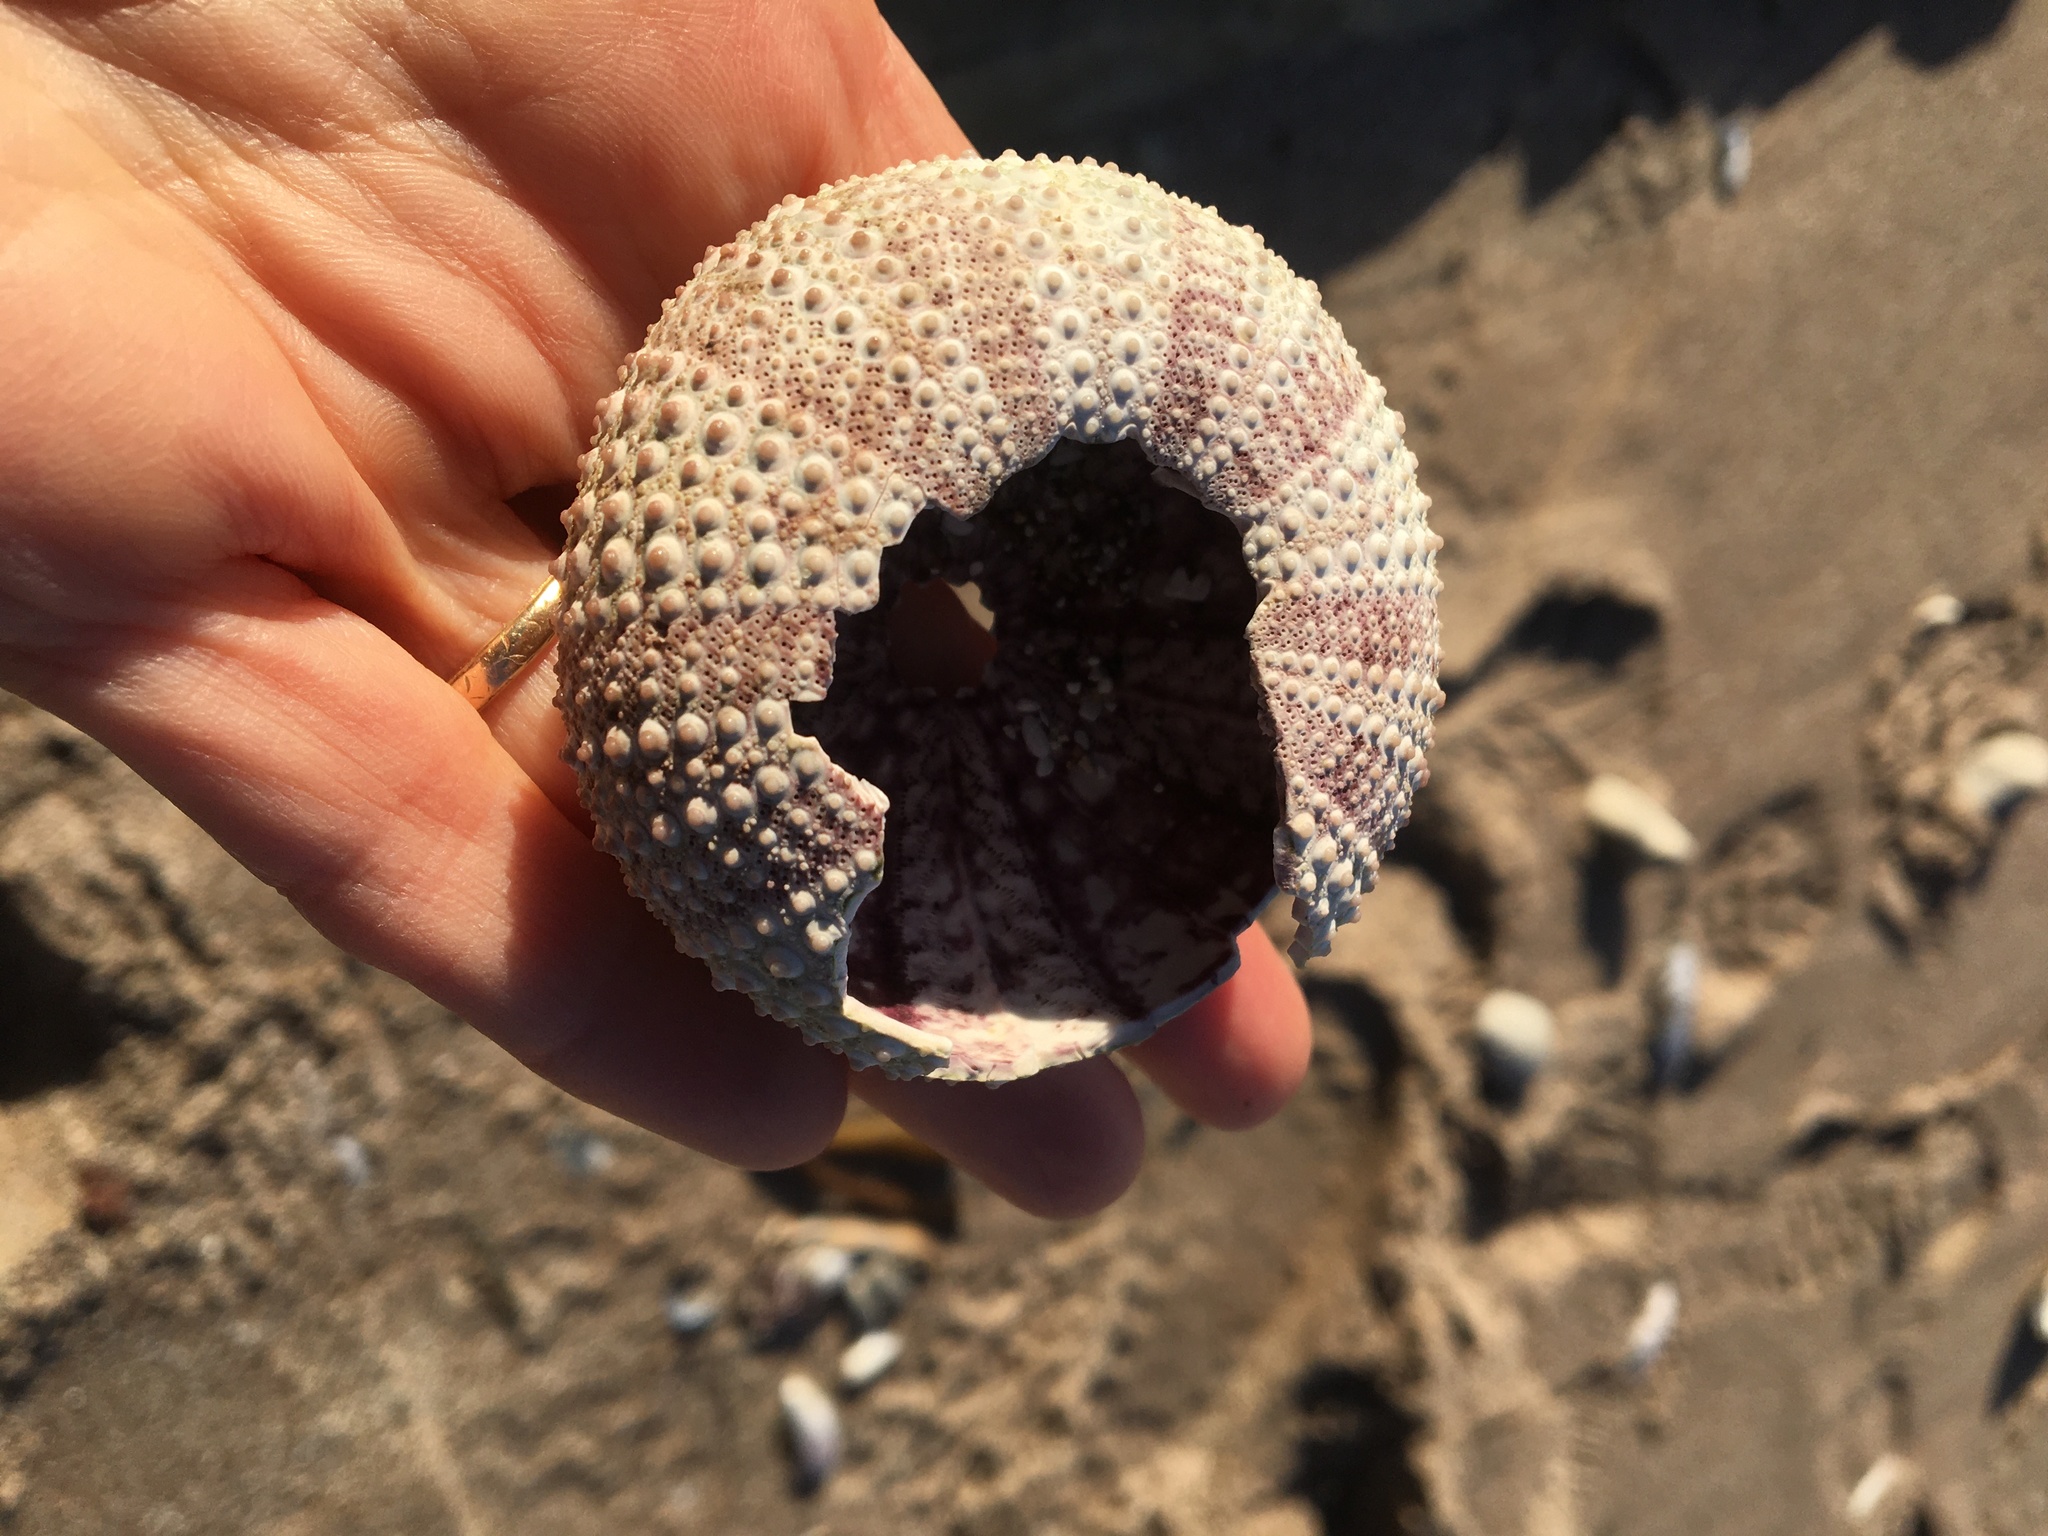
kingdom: Animalia
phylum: Echinodermata
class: Echinoidea
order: Camarodonta
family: Strongylocentrotidae
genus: Strongylocentrotus
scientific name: Strongylocentrotus purpuratus
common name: Purple sea urchin
